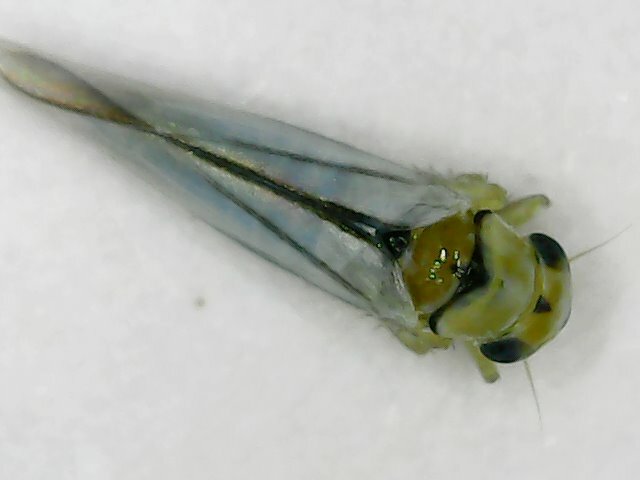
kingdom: Animalia
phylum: Arthropoda
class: Insecta
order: Hemiptera
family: Cicadellidae
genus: Singapora
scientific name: Singapora nigropunctata
